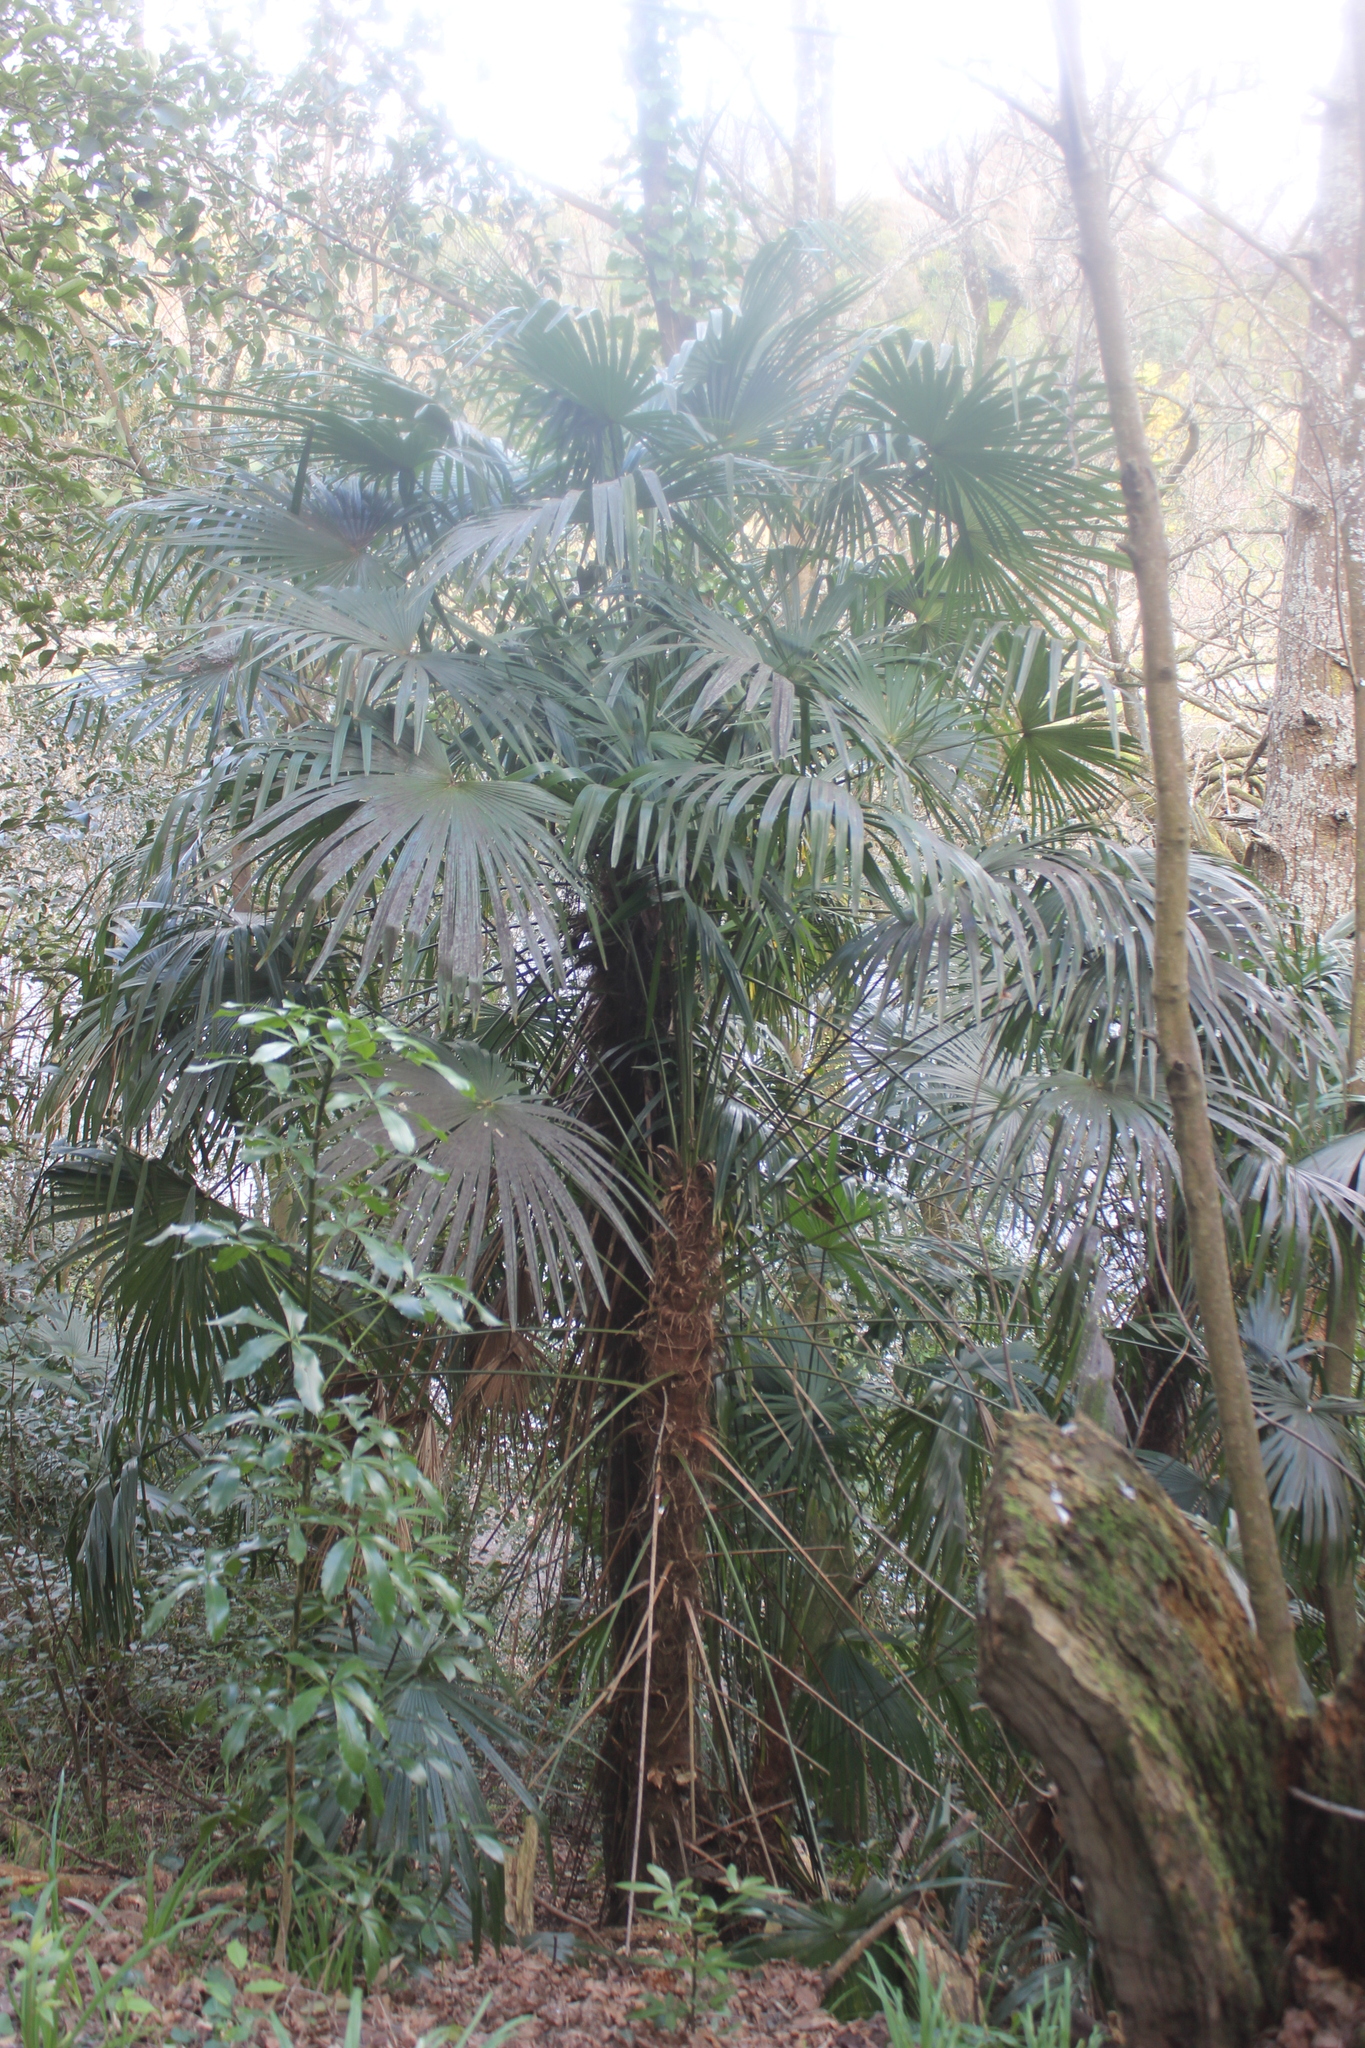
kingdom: Plantae
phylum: Tracheophyta
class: Liliopsida
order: Arecales
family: Arecaceae
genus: Trachycarpus
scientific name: Trachycarpus fortunei
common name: Chusan palm
